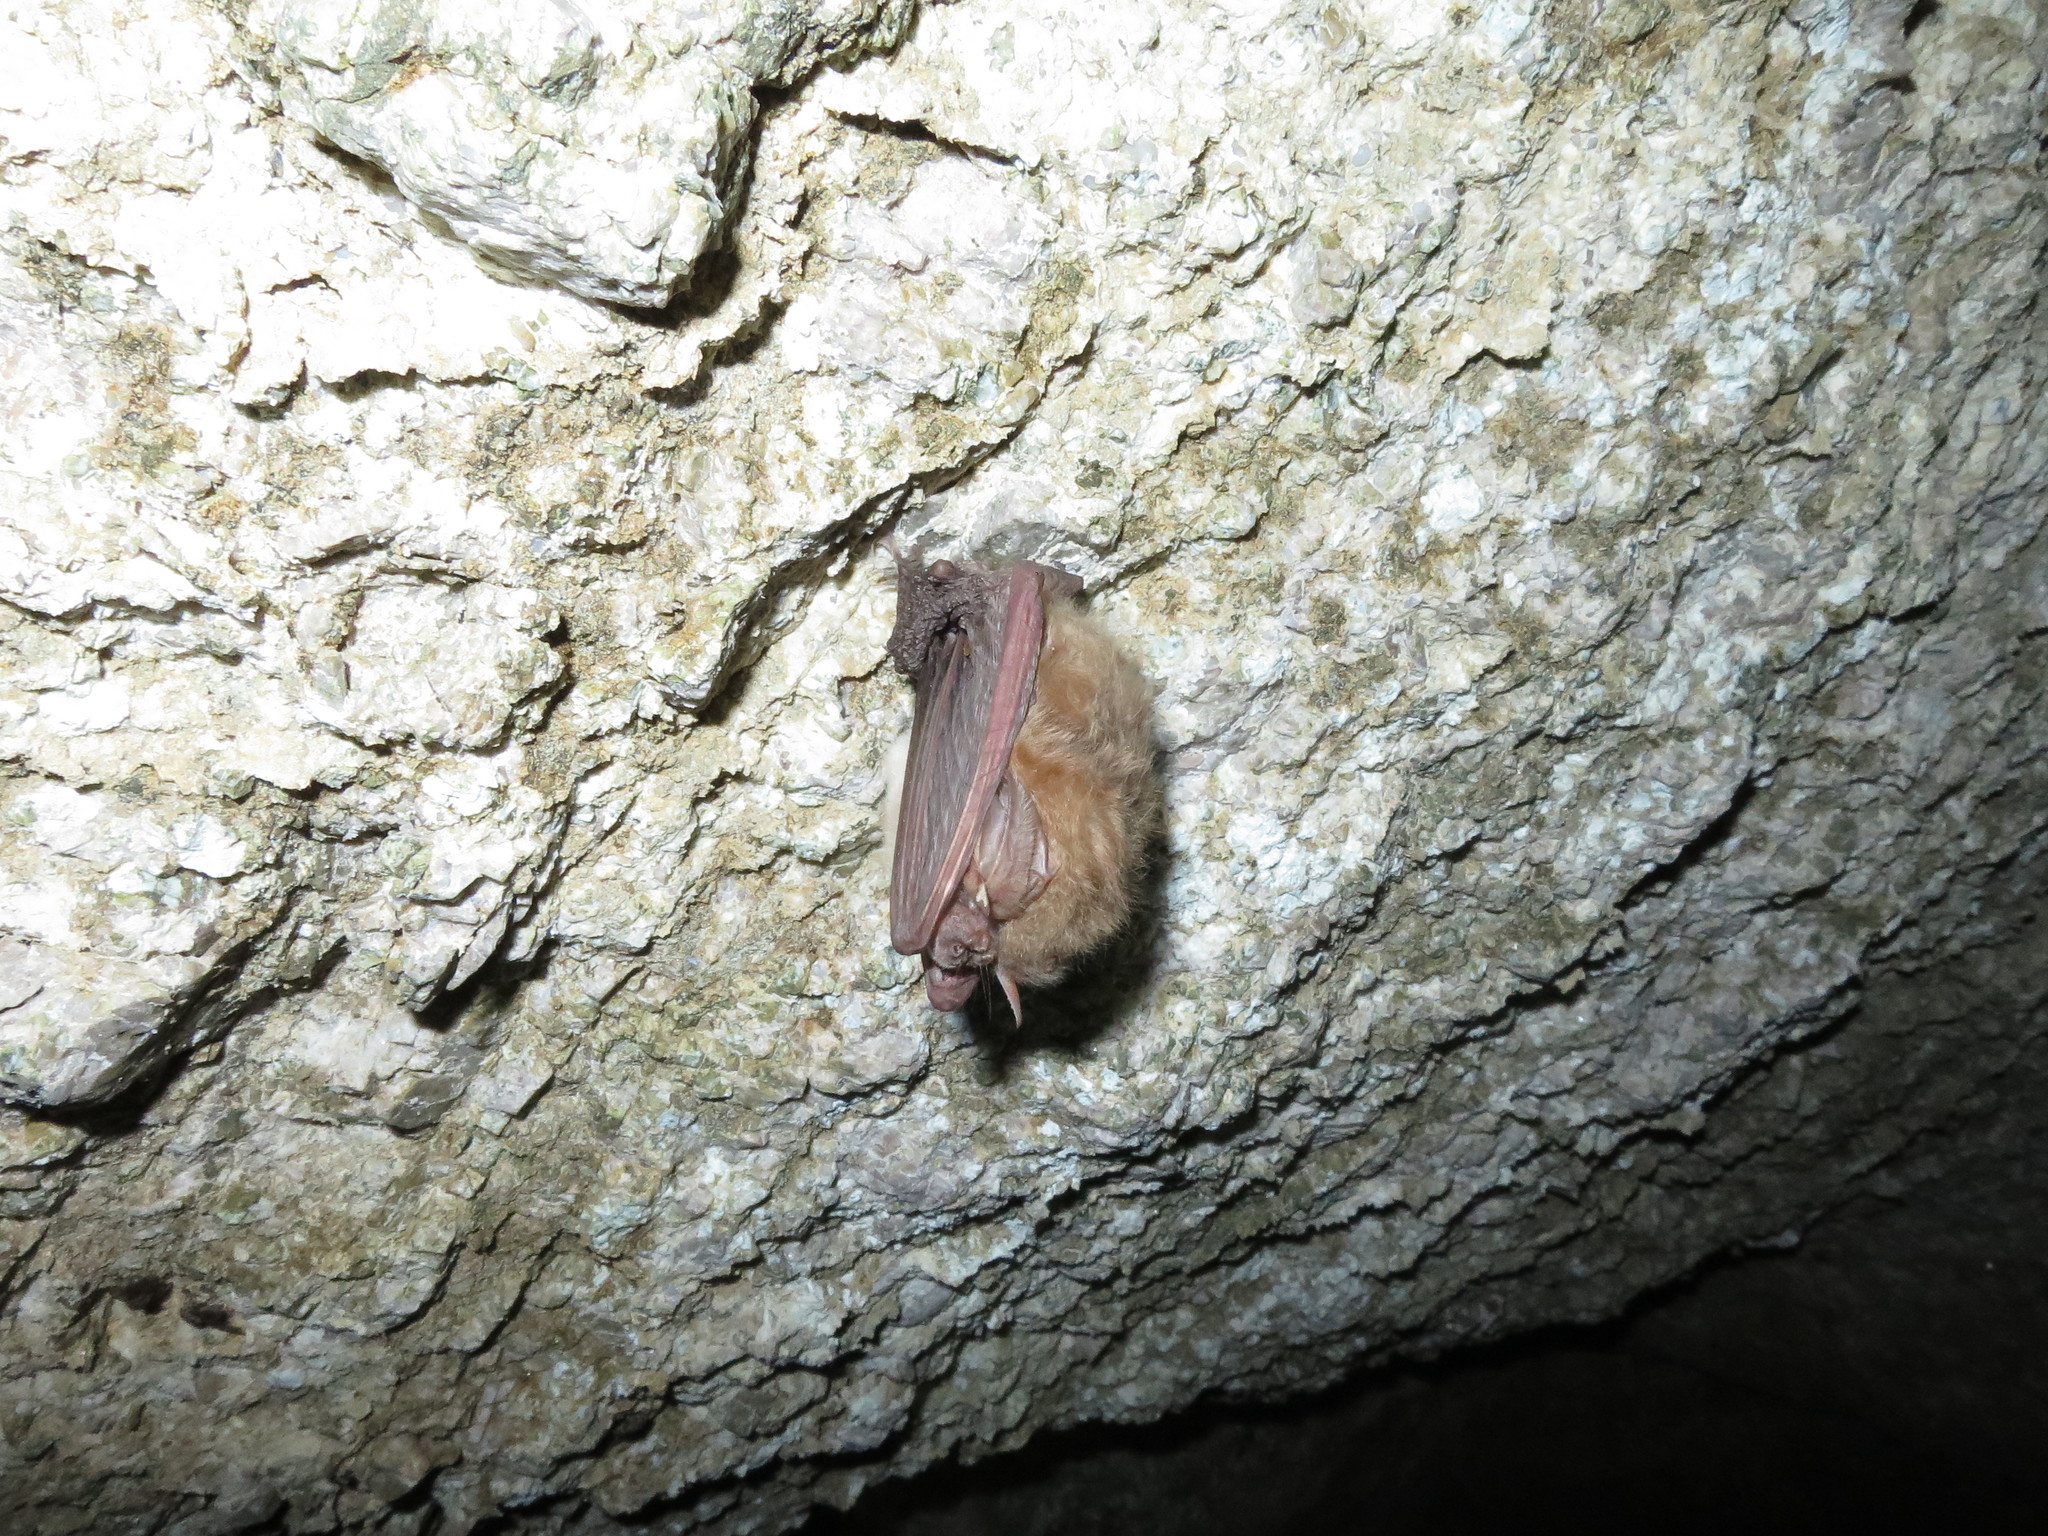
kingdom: Animalia
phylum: Chordata
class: Mammalia
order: Chiroptera
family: Vespertilionidae
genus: Corynorhinus
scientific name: Corynorhinus townsendii
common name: Townsend's big-eared bat
